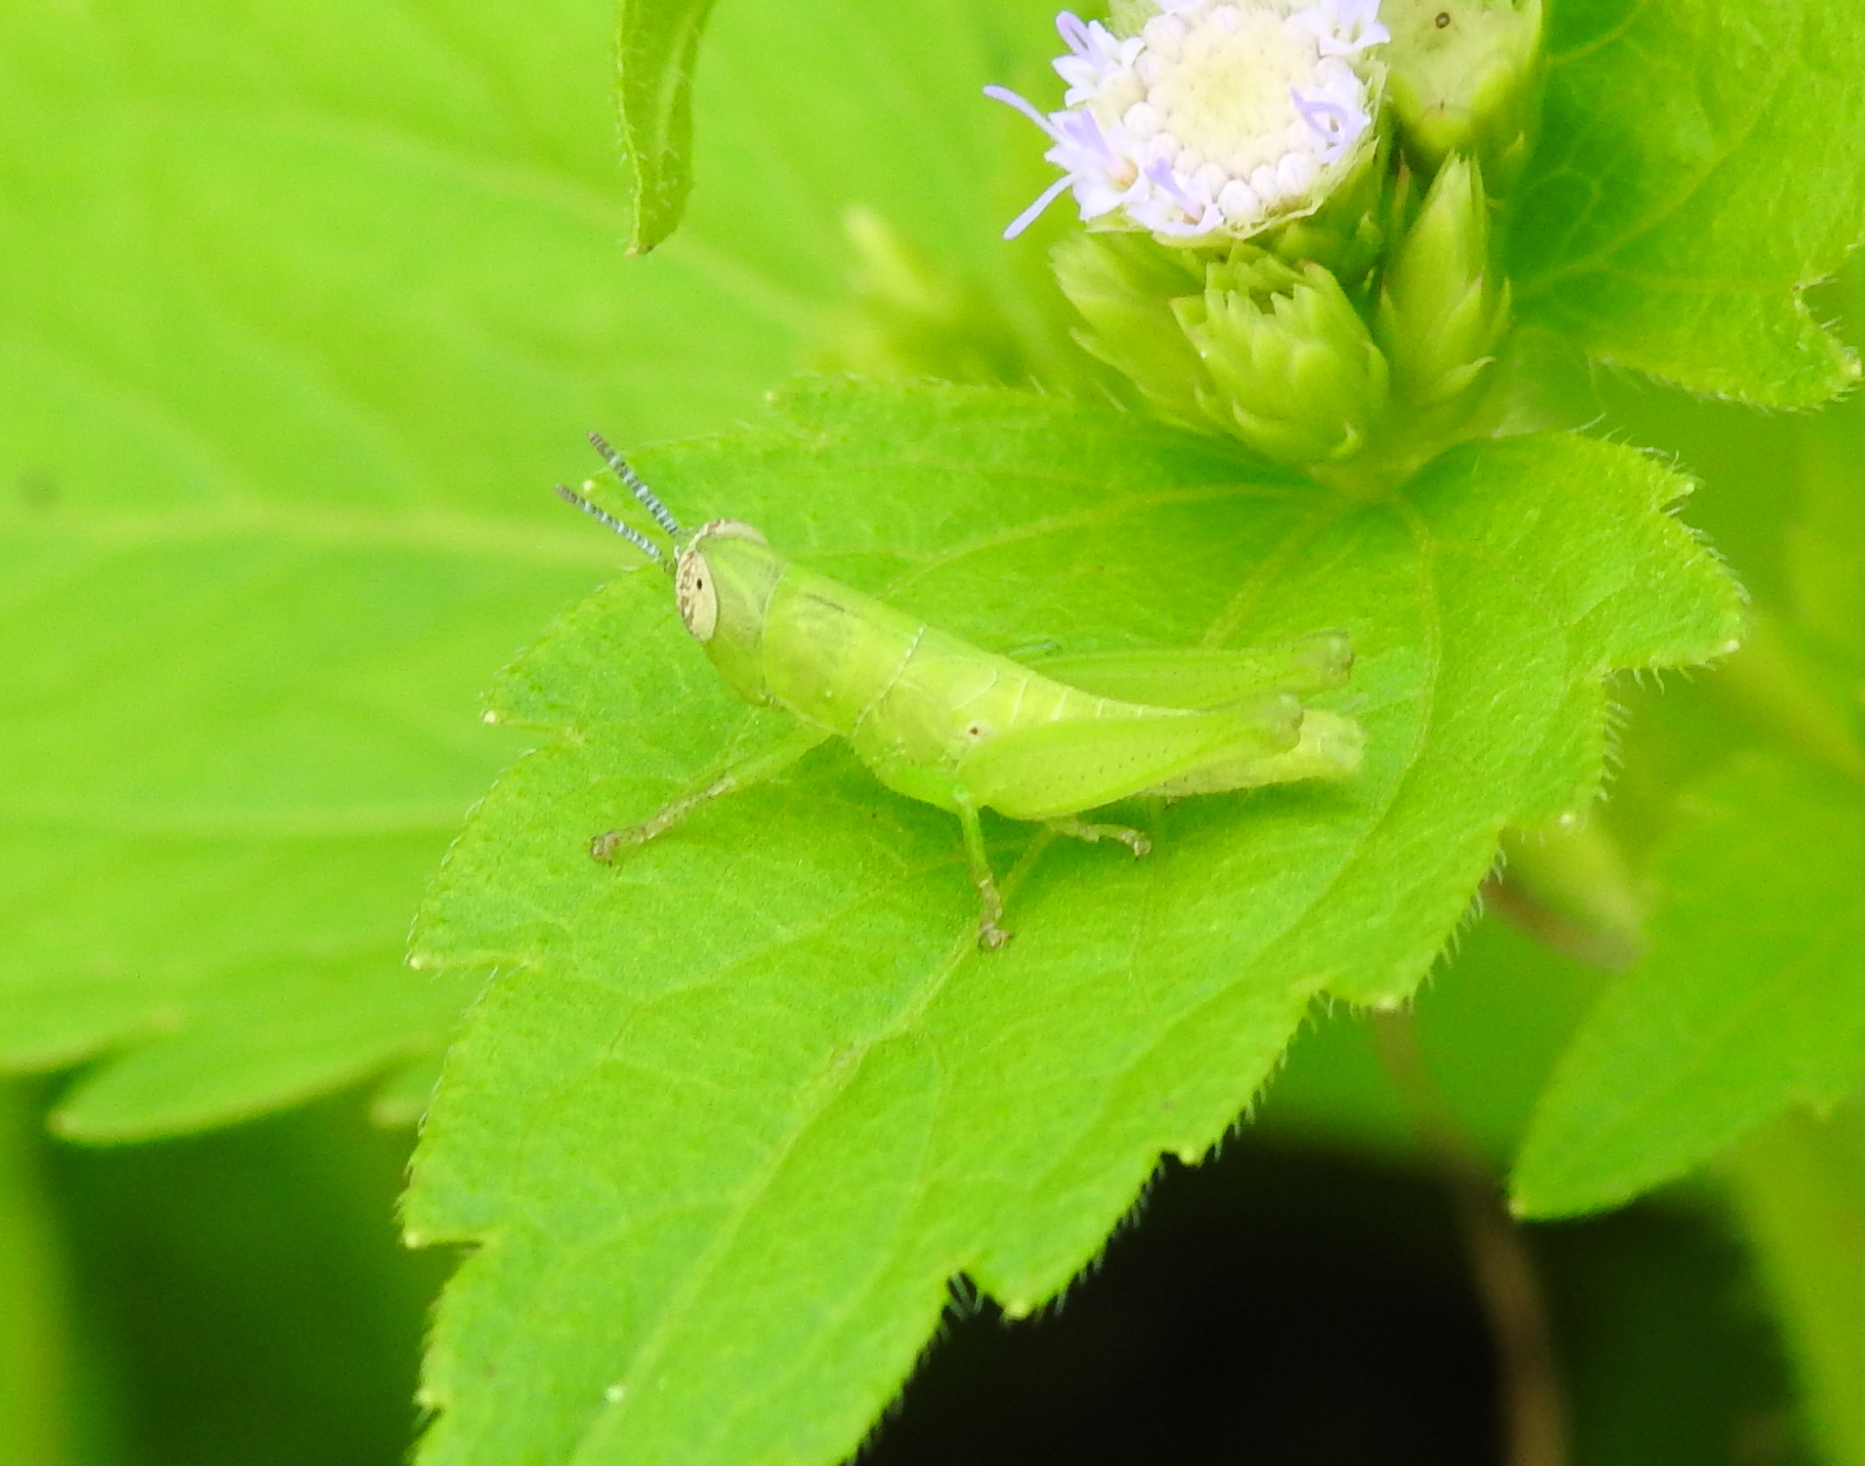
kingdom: Animalia
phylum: Arthropoda
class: Insecta
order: Orthoptera
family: Acrididae
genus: Pseudoxya
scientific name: Pseudoxya diminuta
